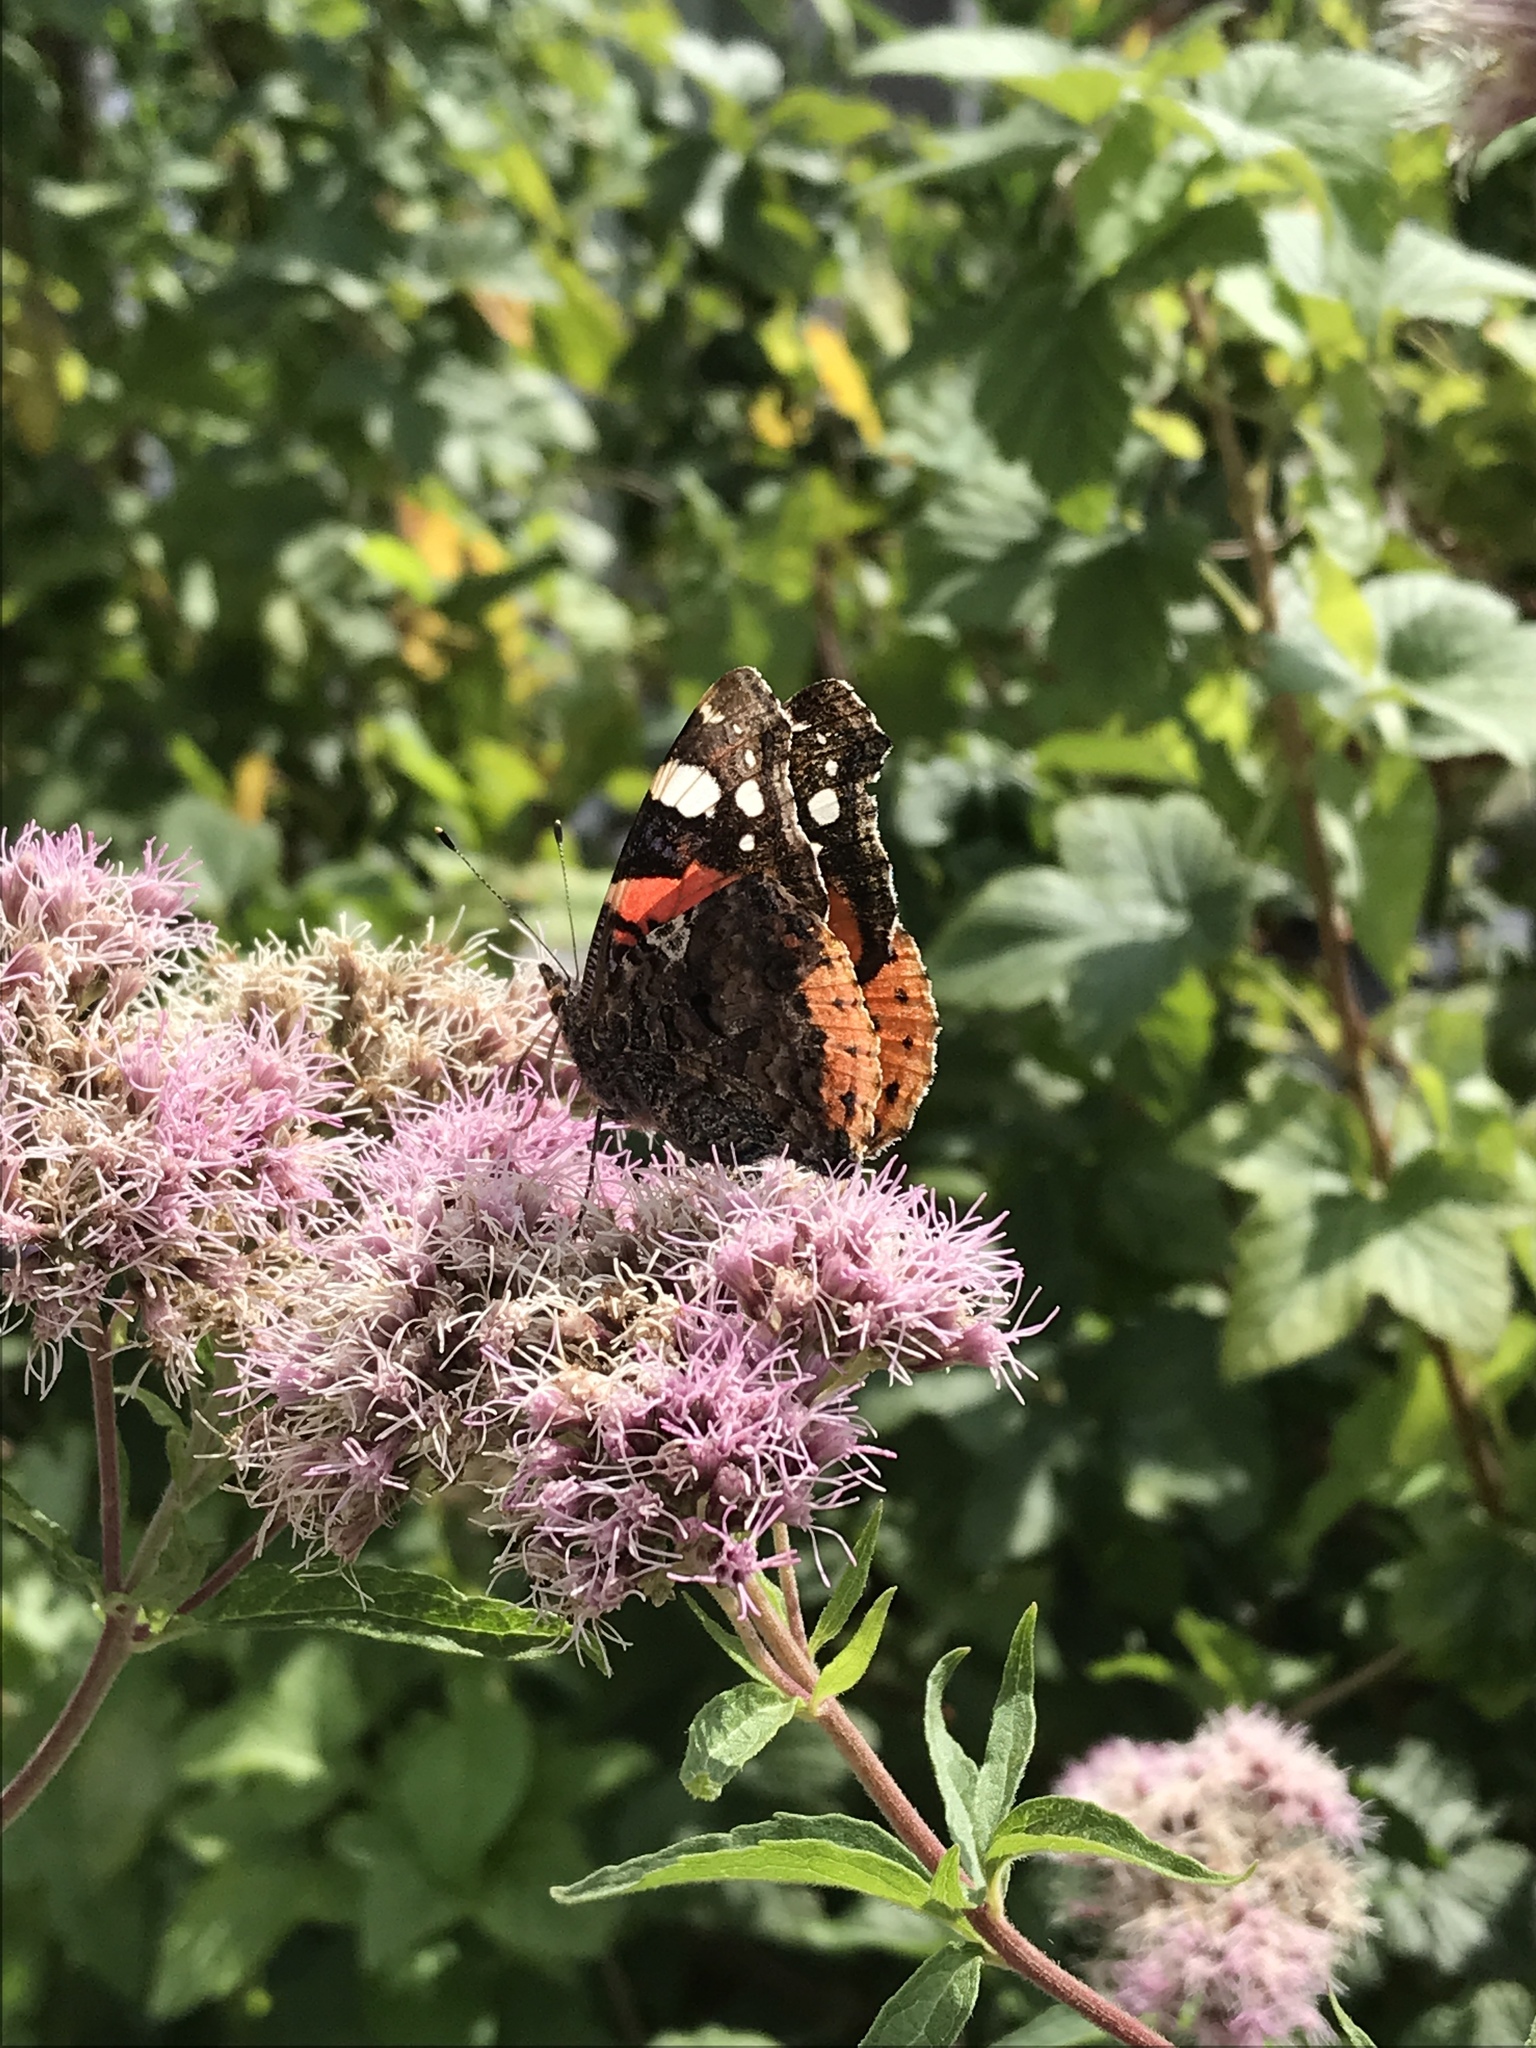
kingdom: Animalia
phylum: Arthropoda
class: Insecta
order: Lepidoptera
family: Nymphalidae
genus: Vanessa
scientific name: Vanessa atalanta
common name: Red admiral
